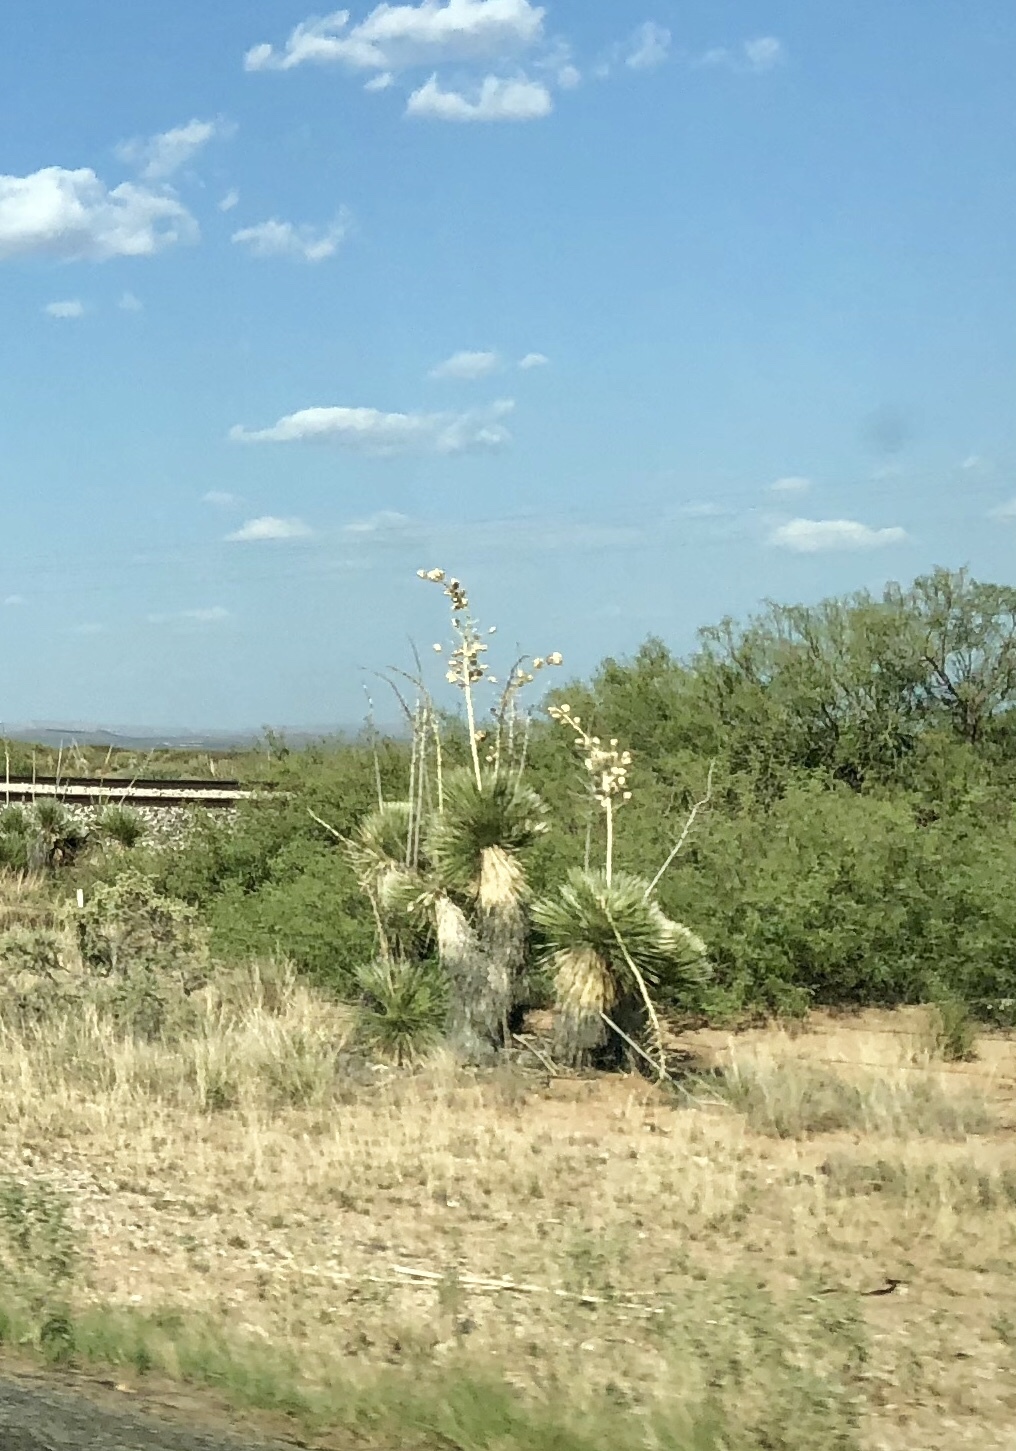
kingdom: Plantae
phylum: Tracheophyta
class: Liliopsida
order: Asparagales
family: Asparagaceae
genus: Yucca
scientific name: Yucca elata
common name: Palmella
